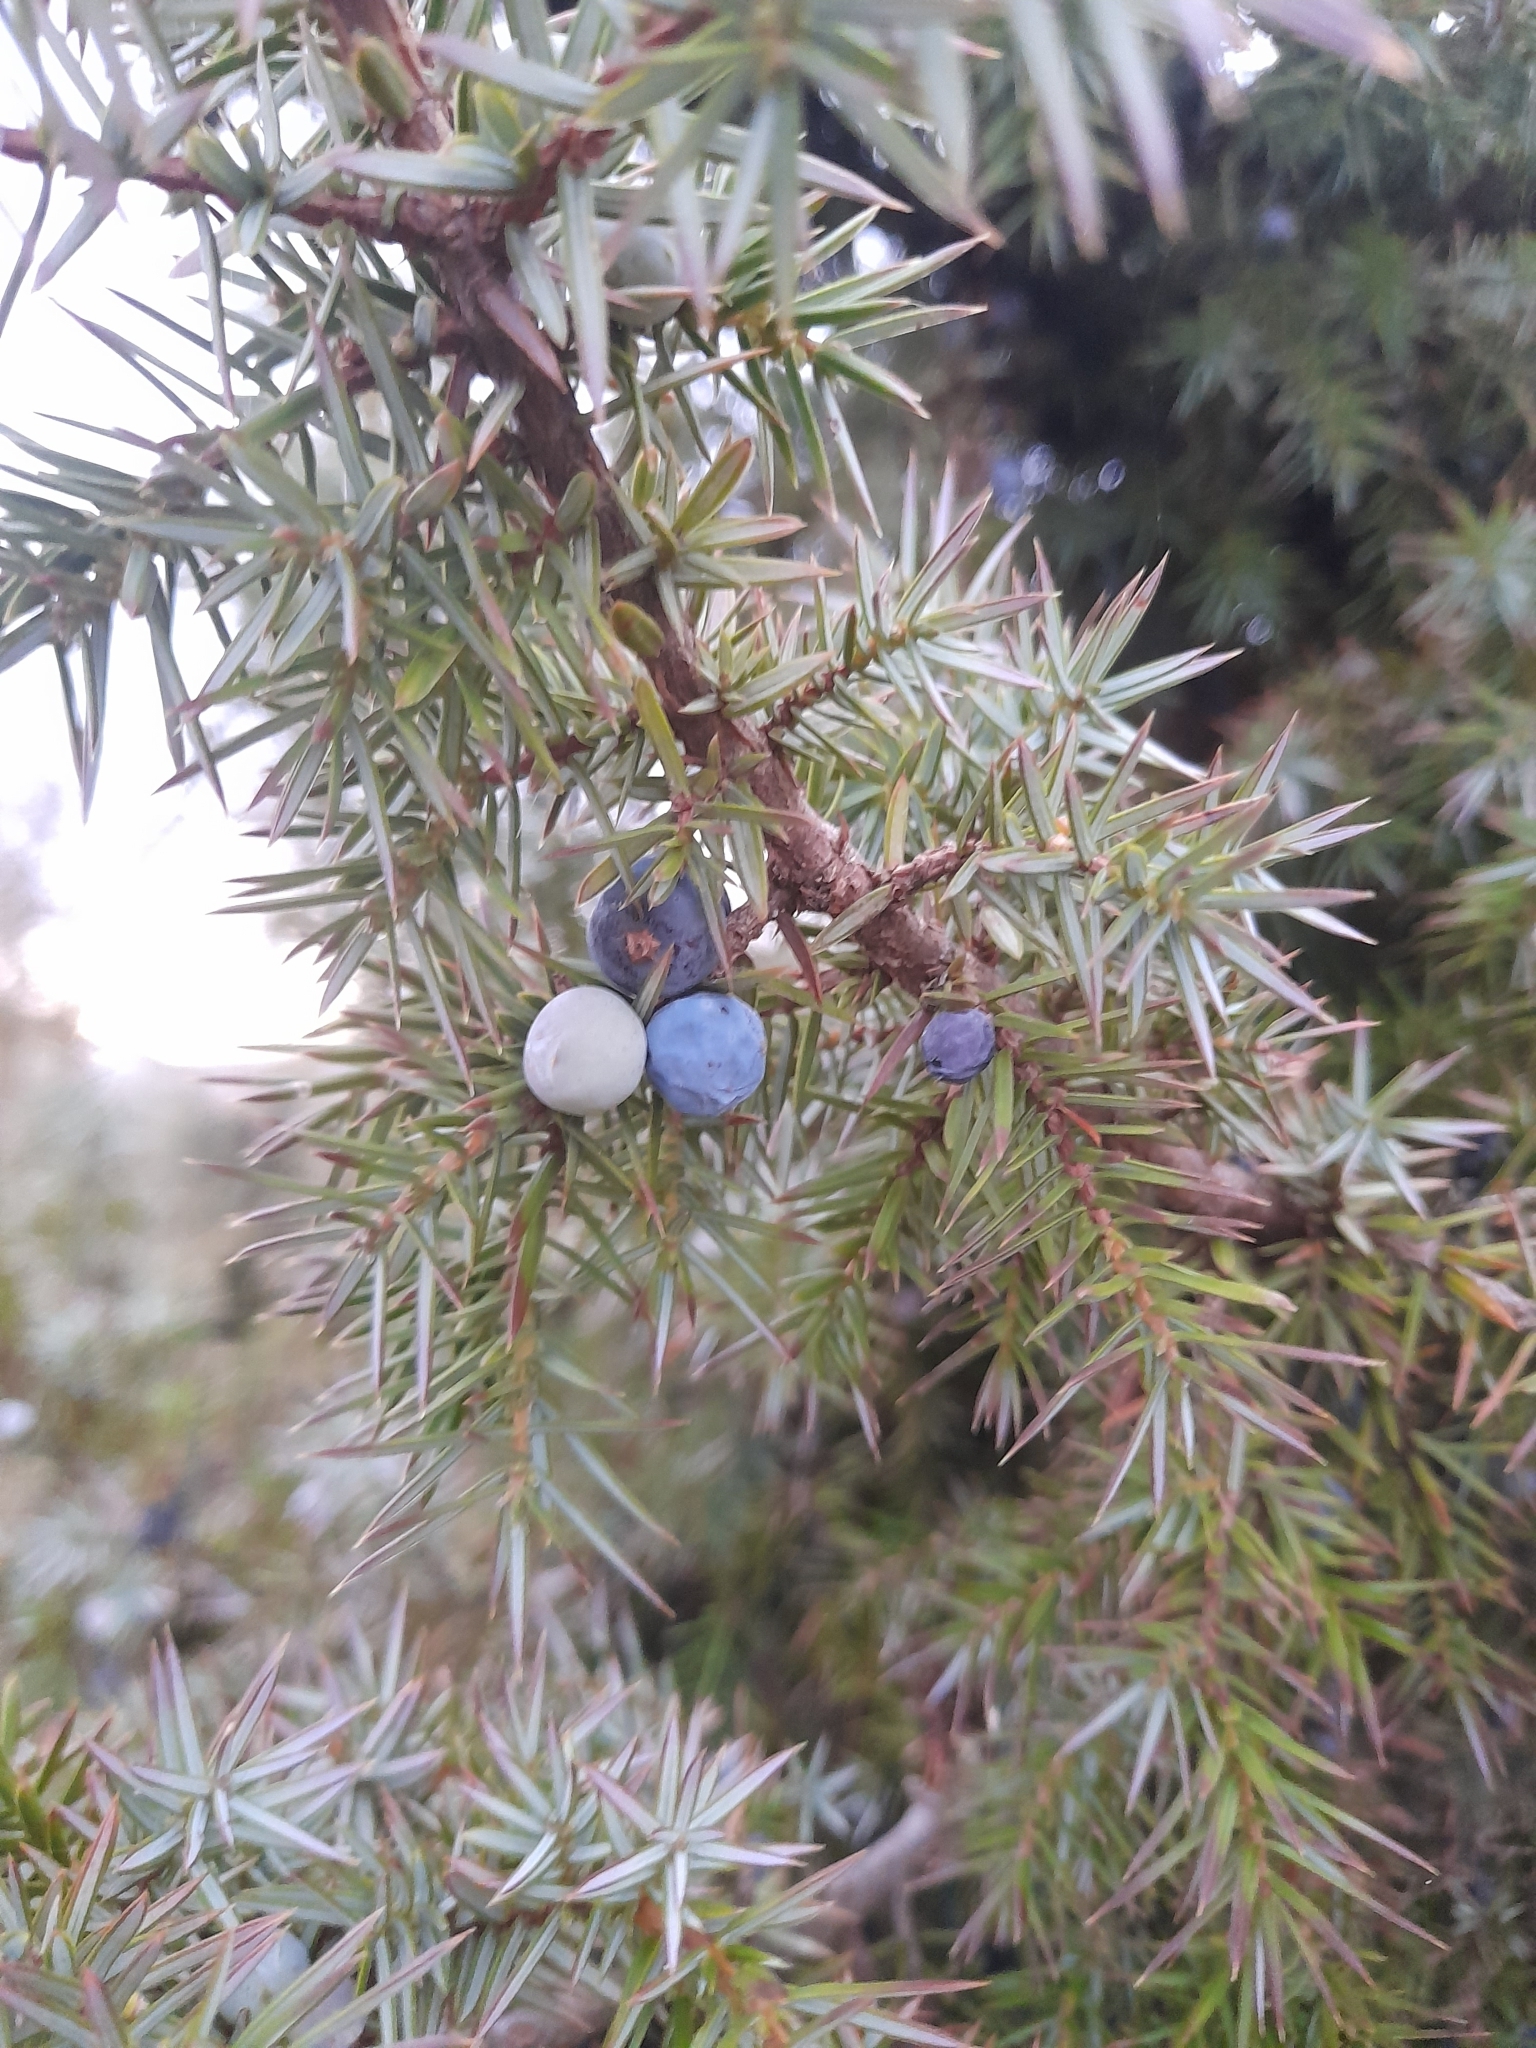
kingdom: Plantae
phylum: Tracheophyta
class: Pinopsida
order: Pinales
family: Cupressaceae
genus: Juniperus
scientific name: Juniperus communis
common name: Common juniper
